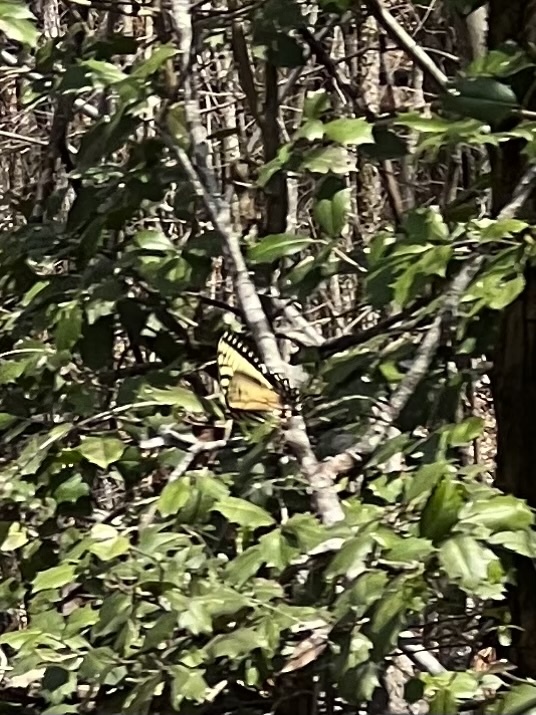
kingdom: Animalia
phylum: Arthropoda
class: Insecta
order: Lepidoptera
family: Papilionidae
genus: Papilio
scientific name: Papilio glaucus
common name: Tiger swallowtail
